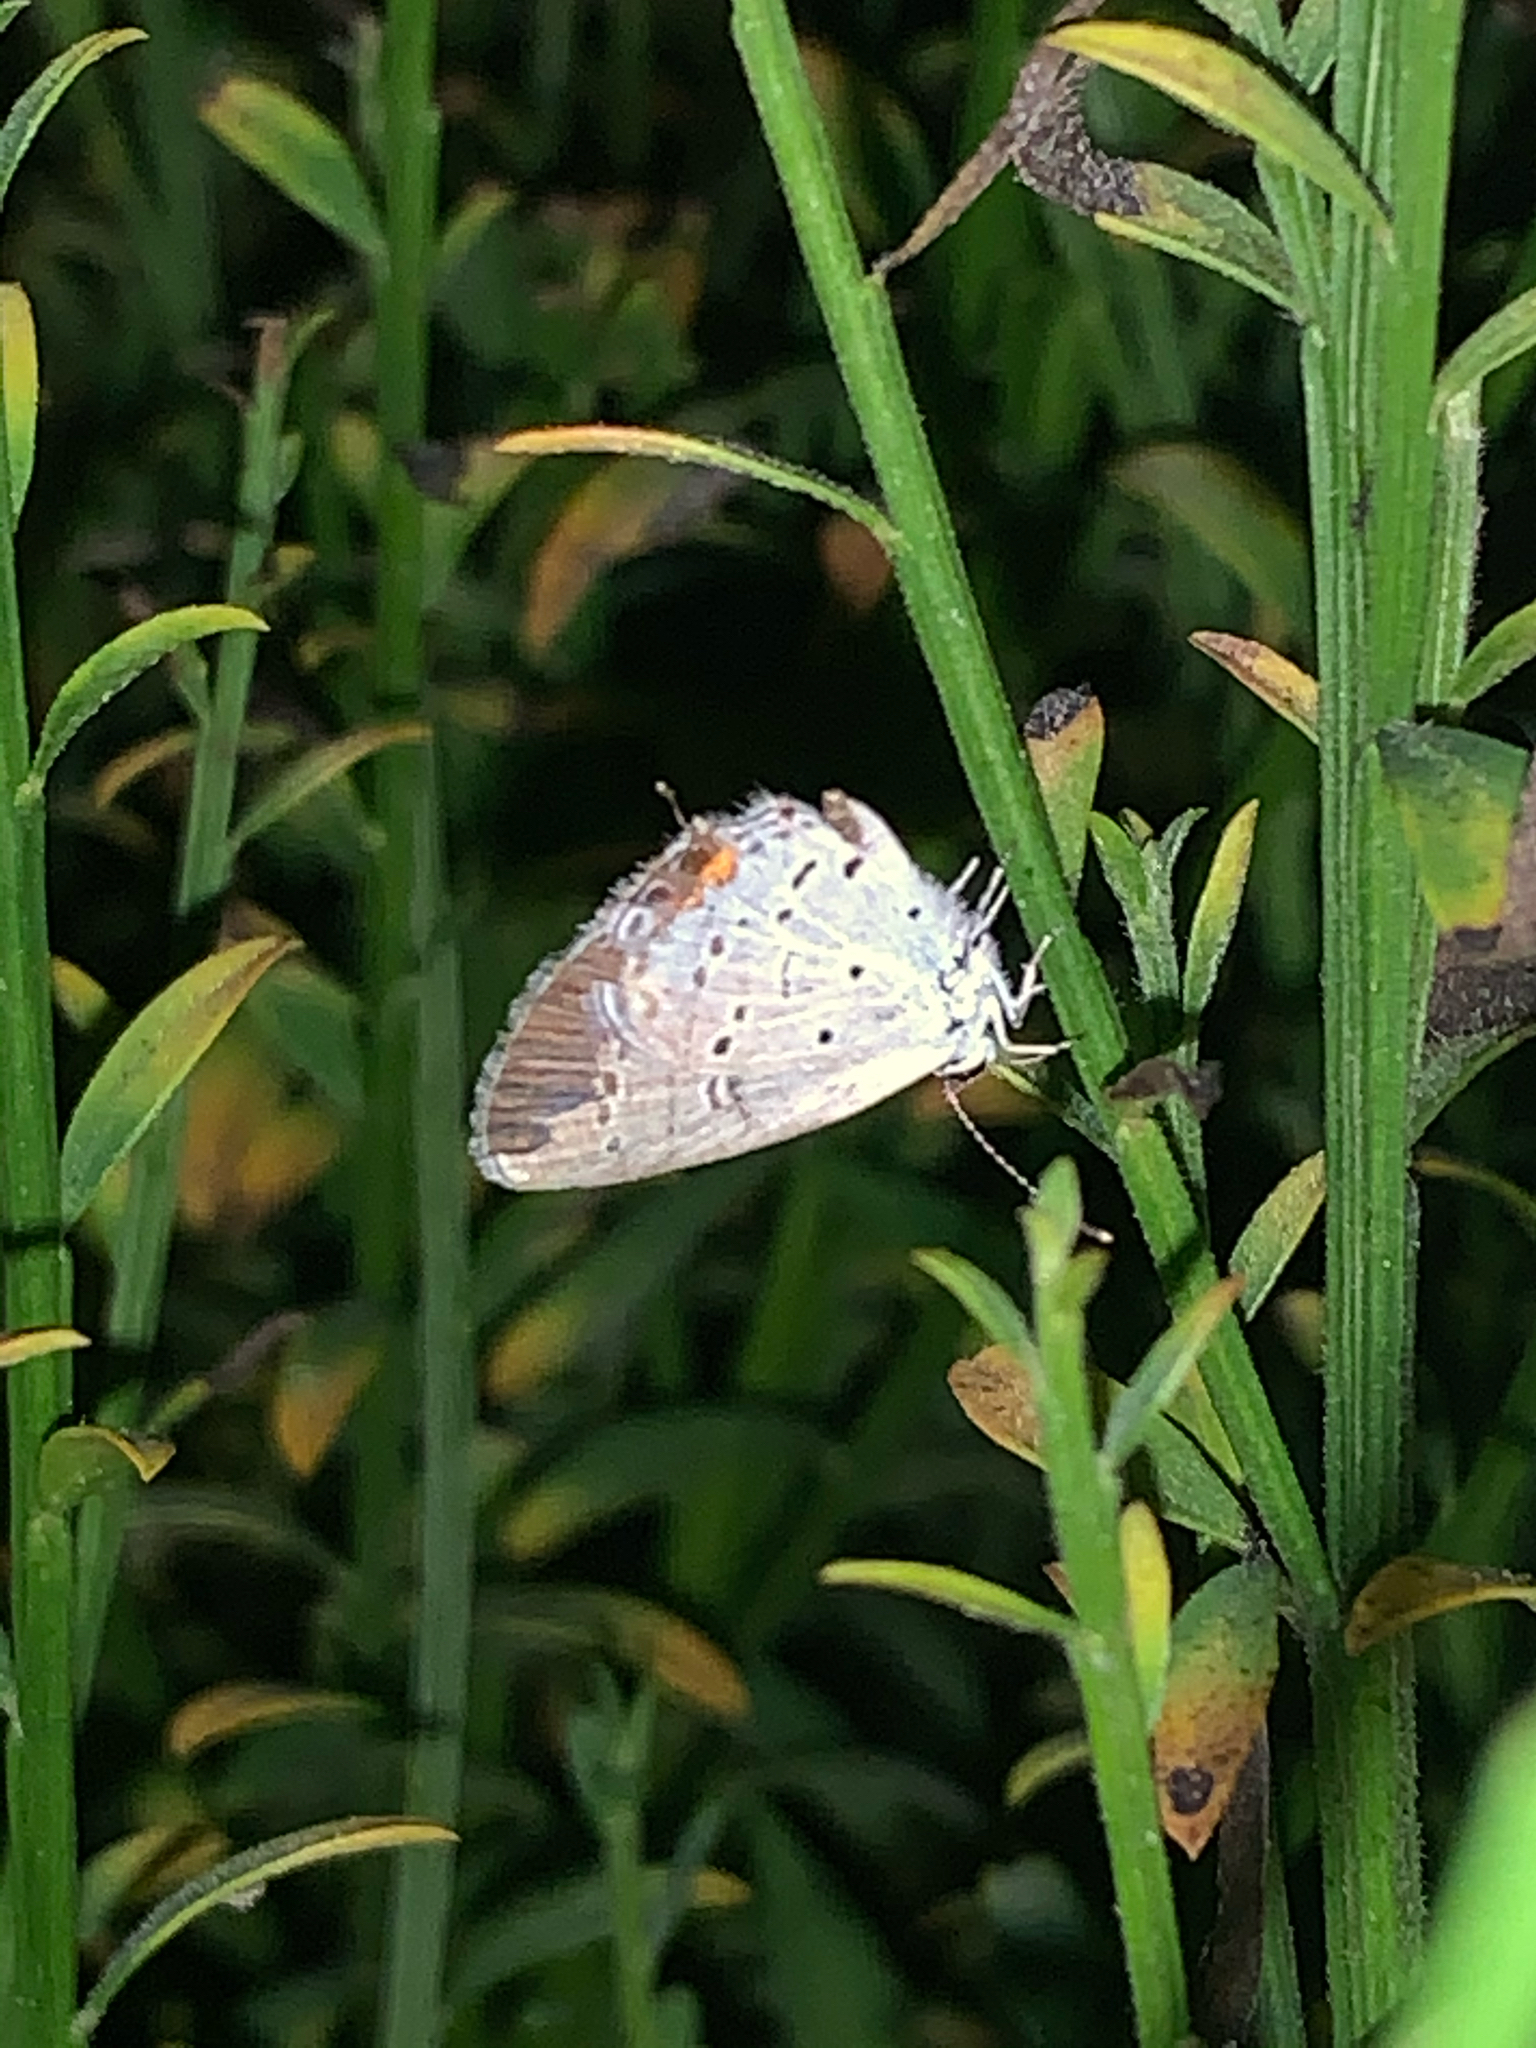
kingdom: Animalia
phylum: Arthropoda
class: Insecta
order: Lepidoptera
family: Lycaenidae
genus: Elkalyce
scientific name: Elkalyce comyntas
